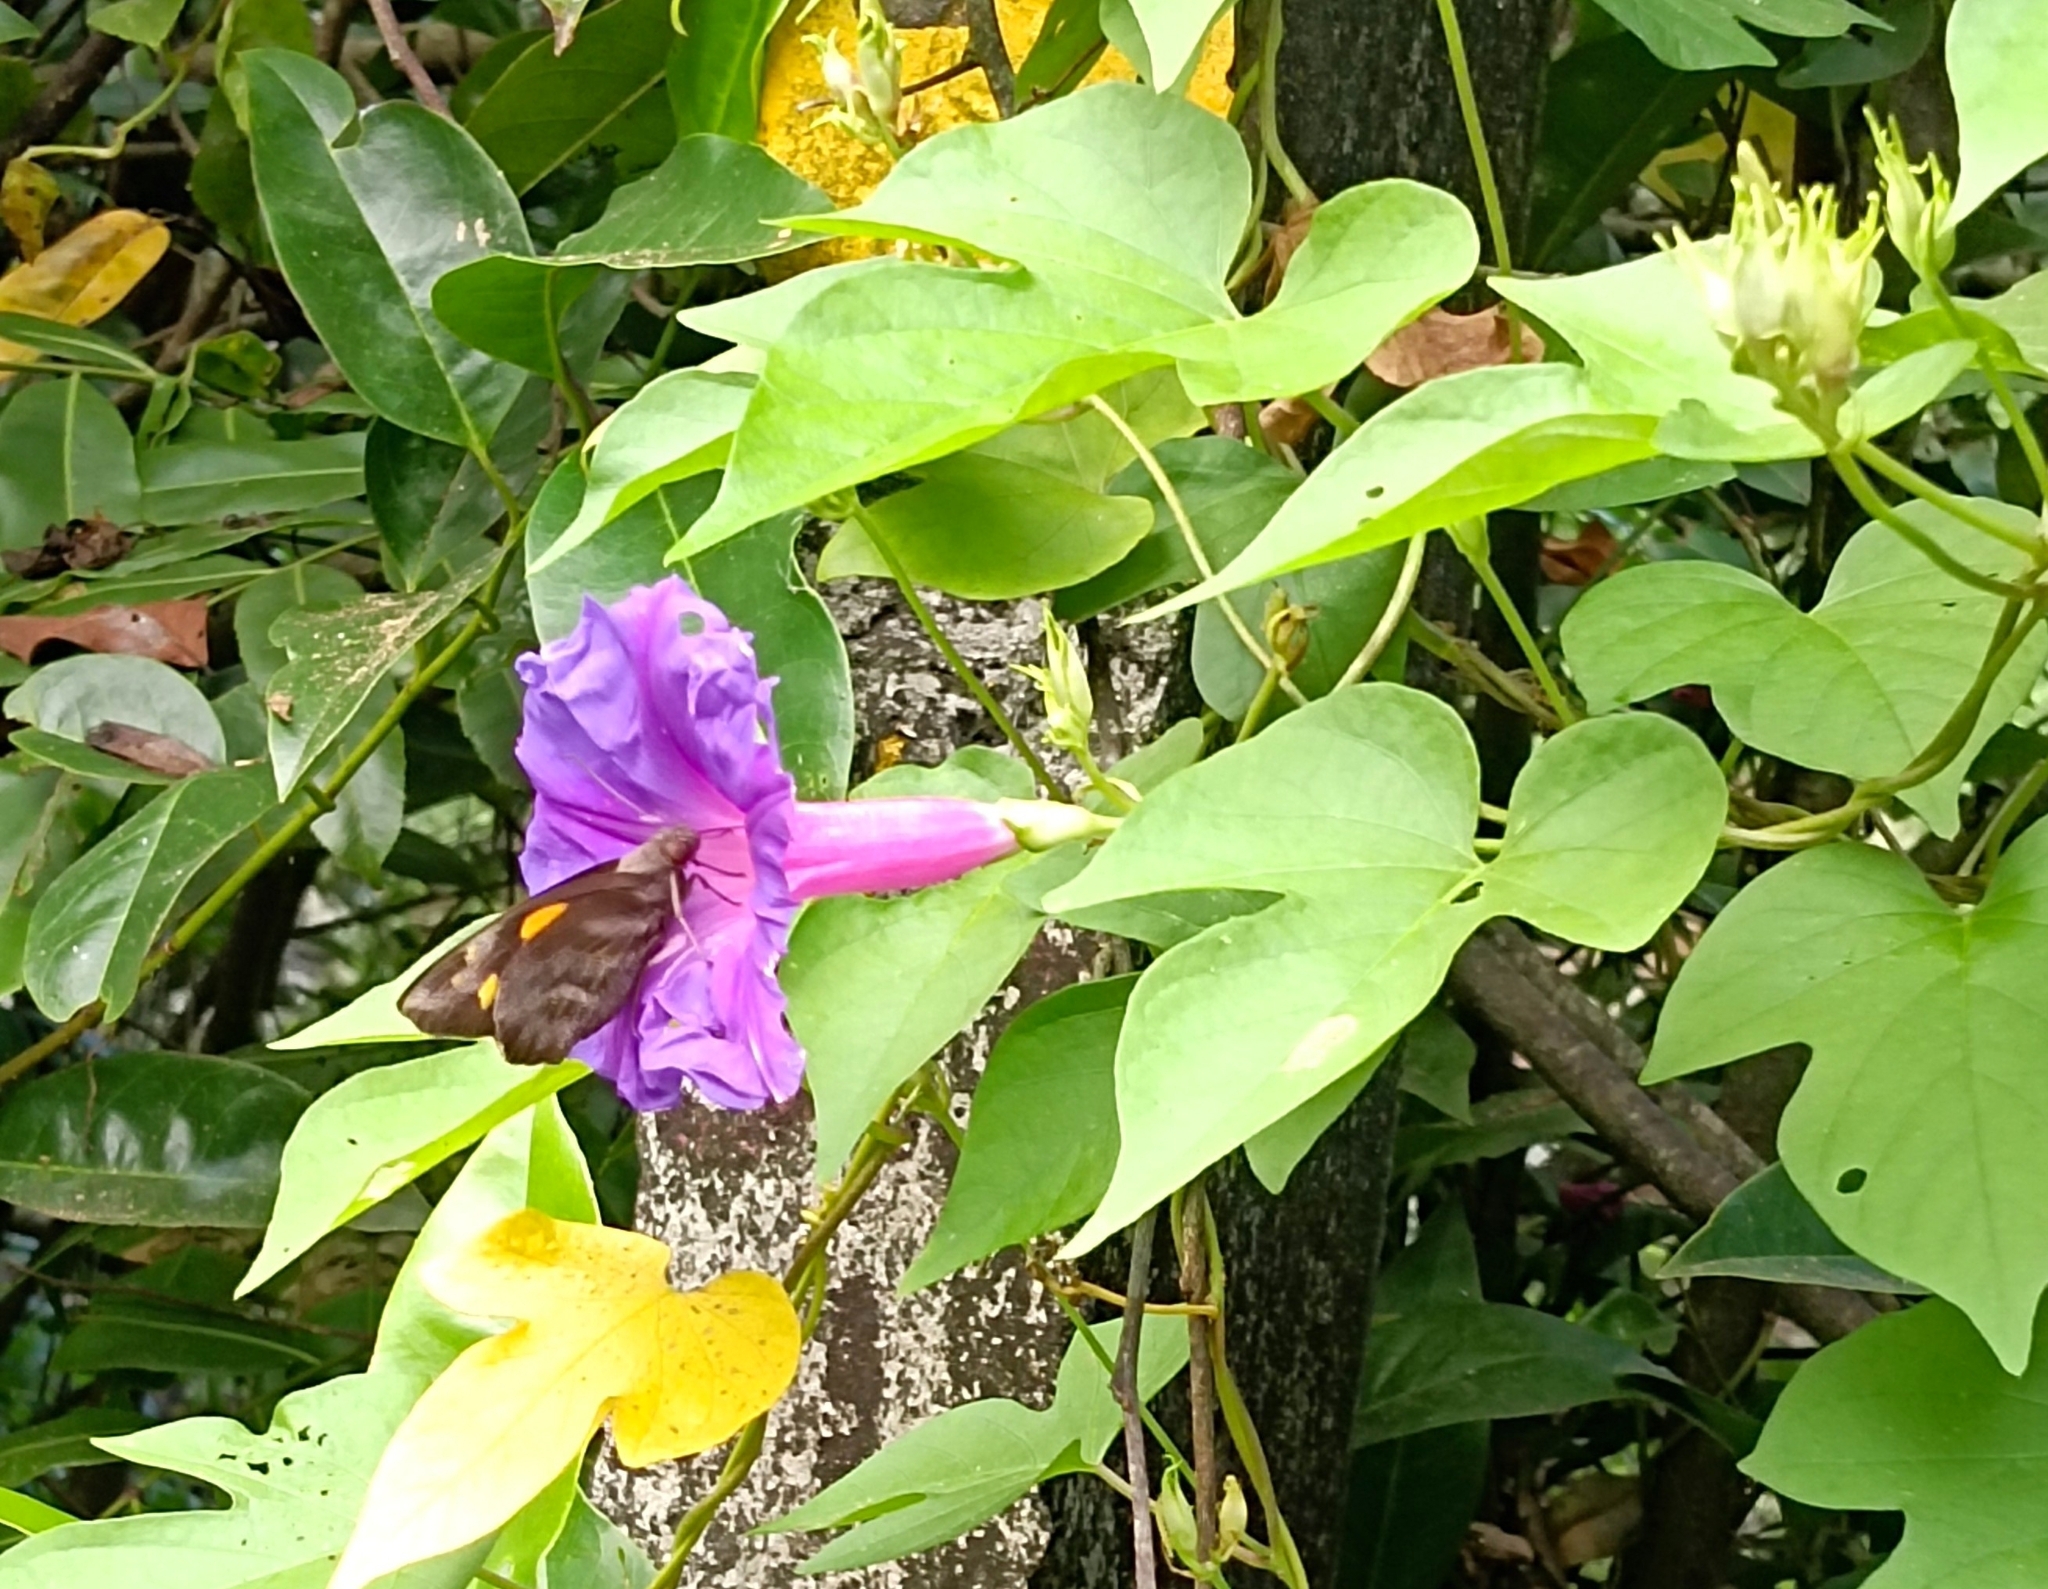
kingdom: Animalia
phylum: Arthropoda
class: Insecta
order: Lepidoptera
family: Hesperiidae
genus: Gangara
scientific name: Gangara thyrsis
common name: Giant redeye
